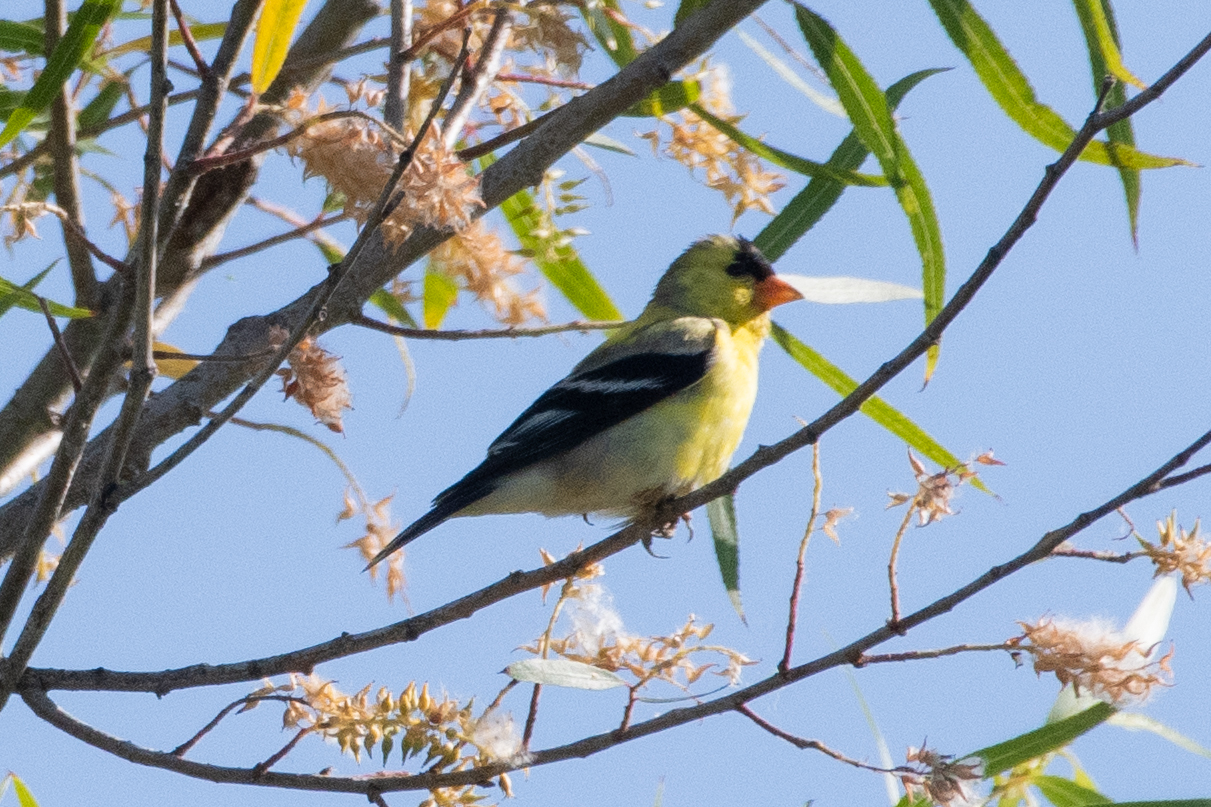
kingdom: Animalia
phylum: Chordata
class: Aves
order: Passeriformes
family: Fringillidae
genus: Spinus
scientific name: Spinus tristis
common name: American goldfinch
